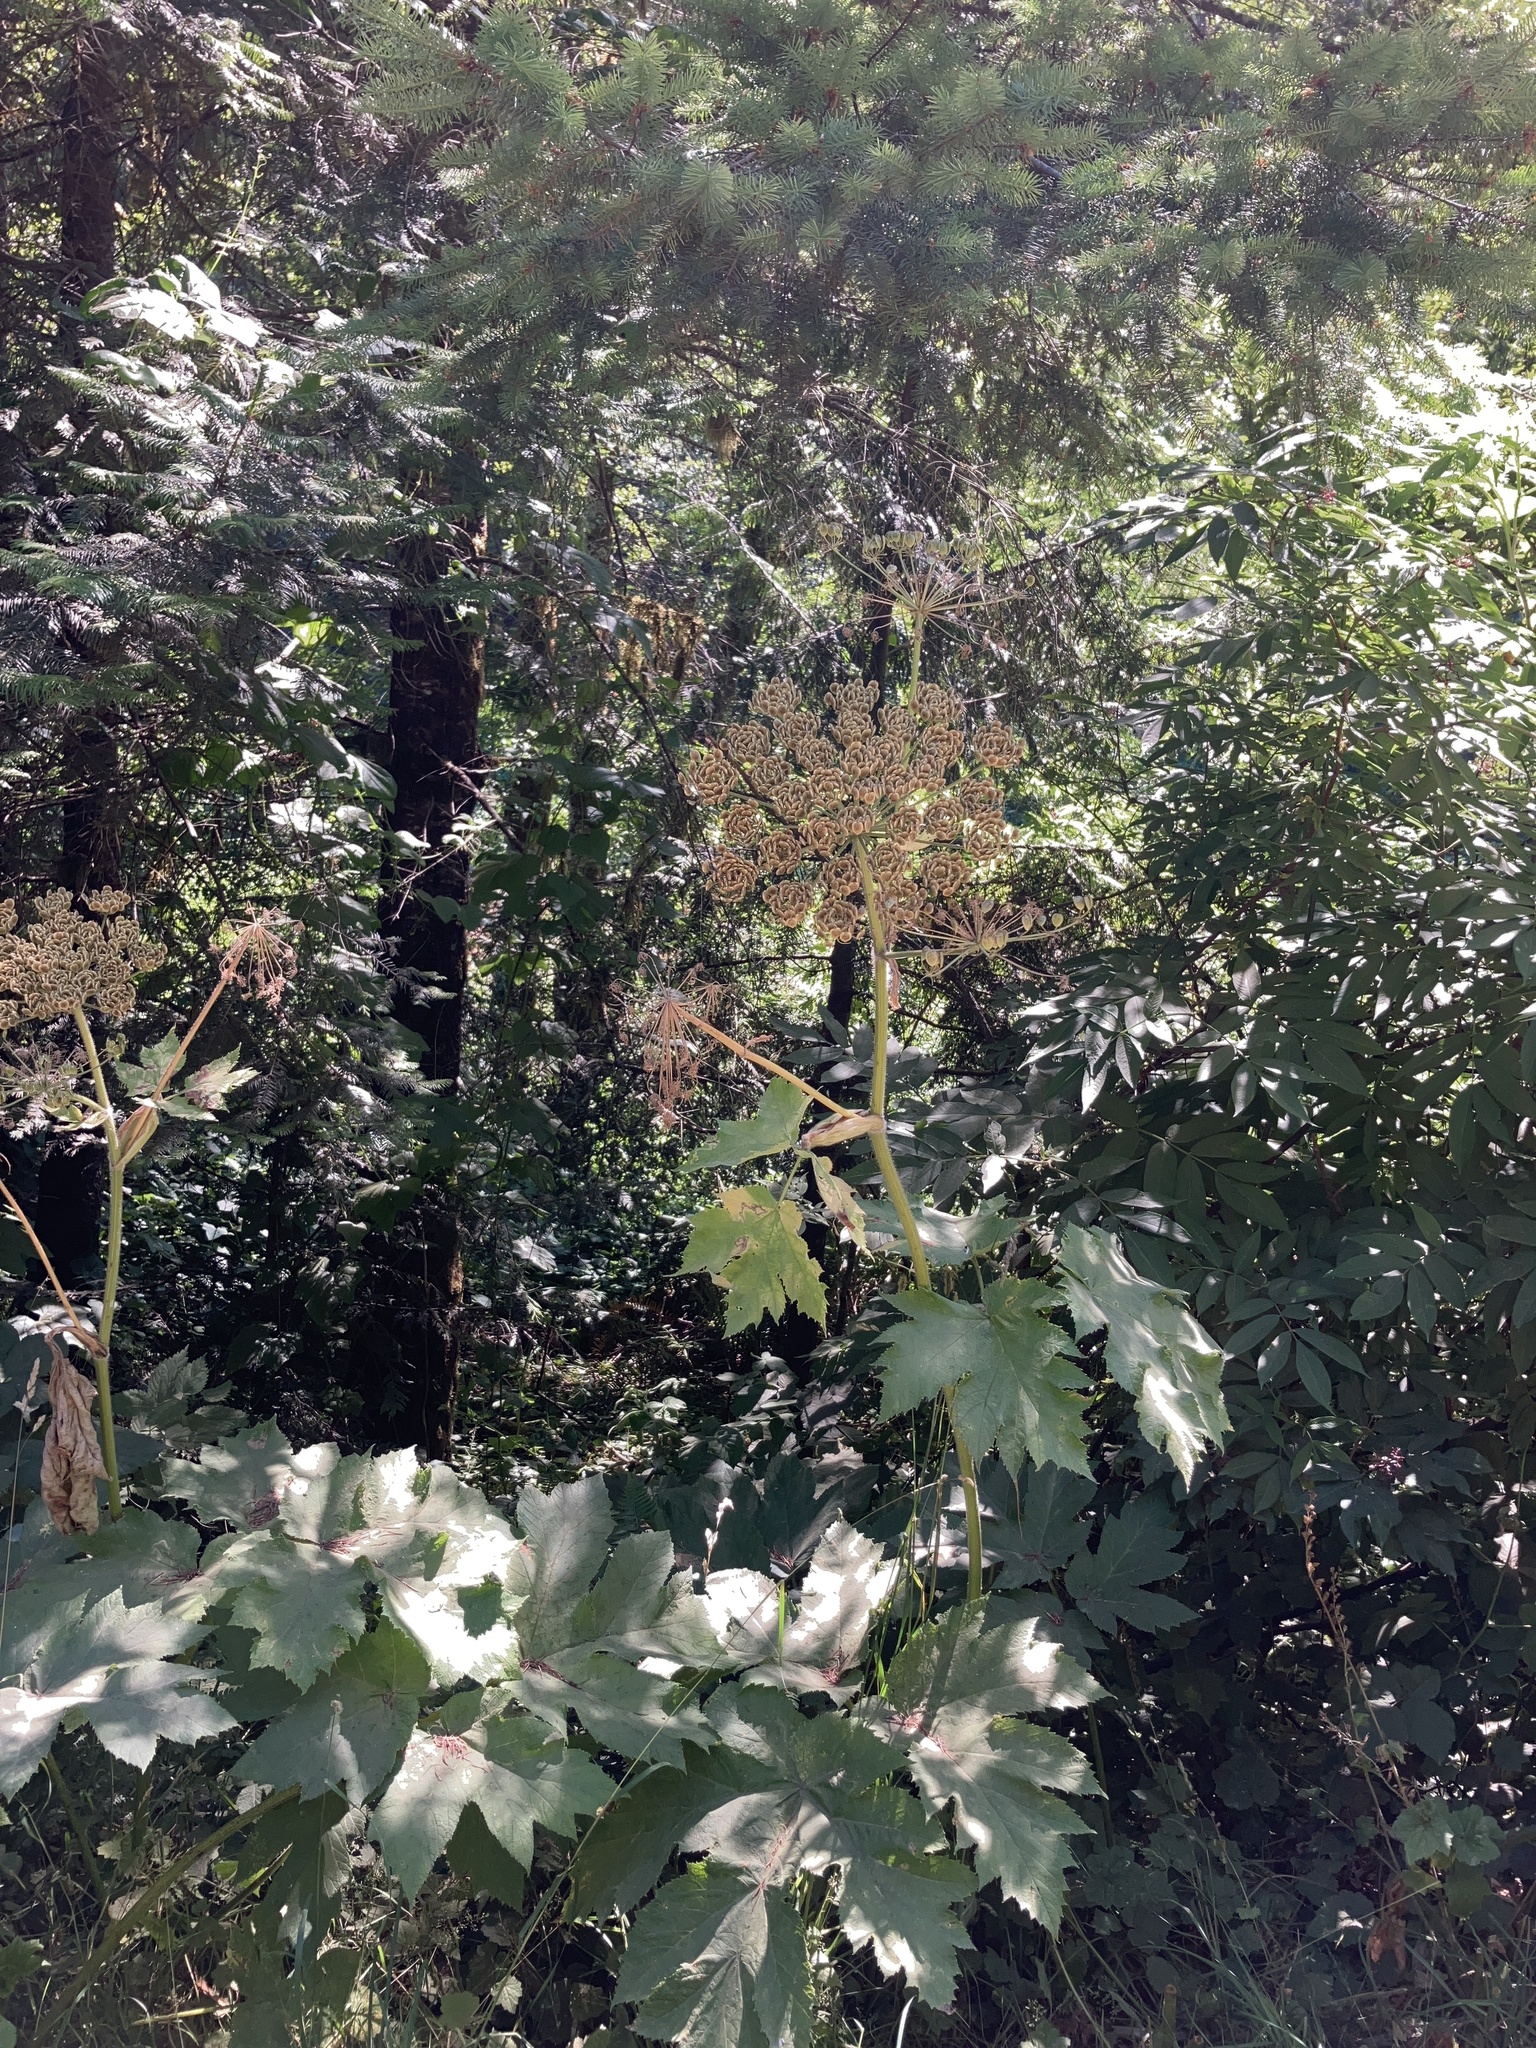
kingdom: Plantae
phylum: Tracheophyta
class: Magnoliopsida
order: Apiales
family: Apiaceae
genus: Heracleum
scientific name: Heracleum maximum
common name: American cow parsnip
